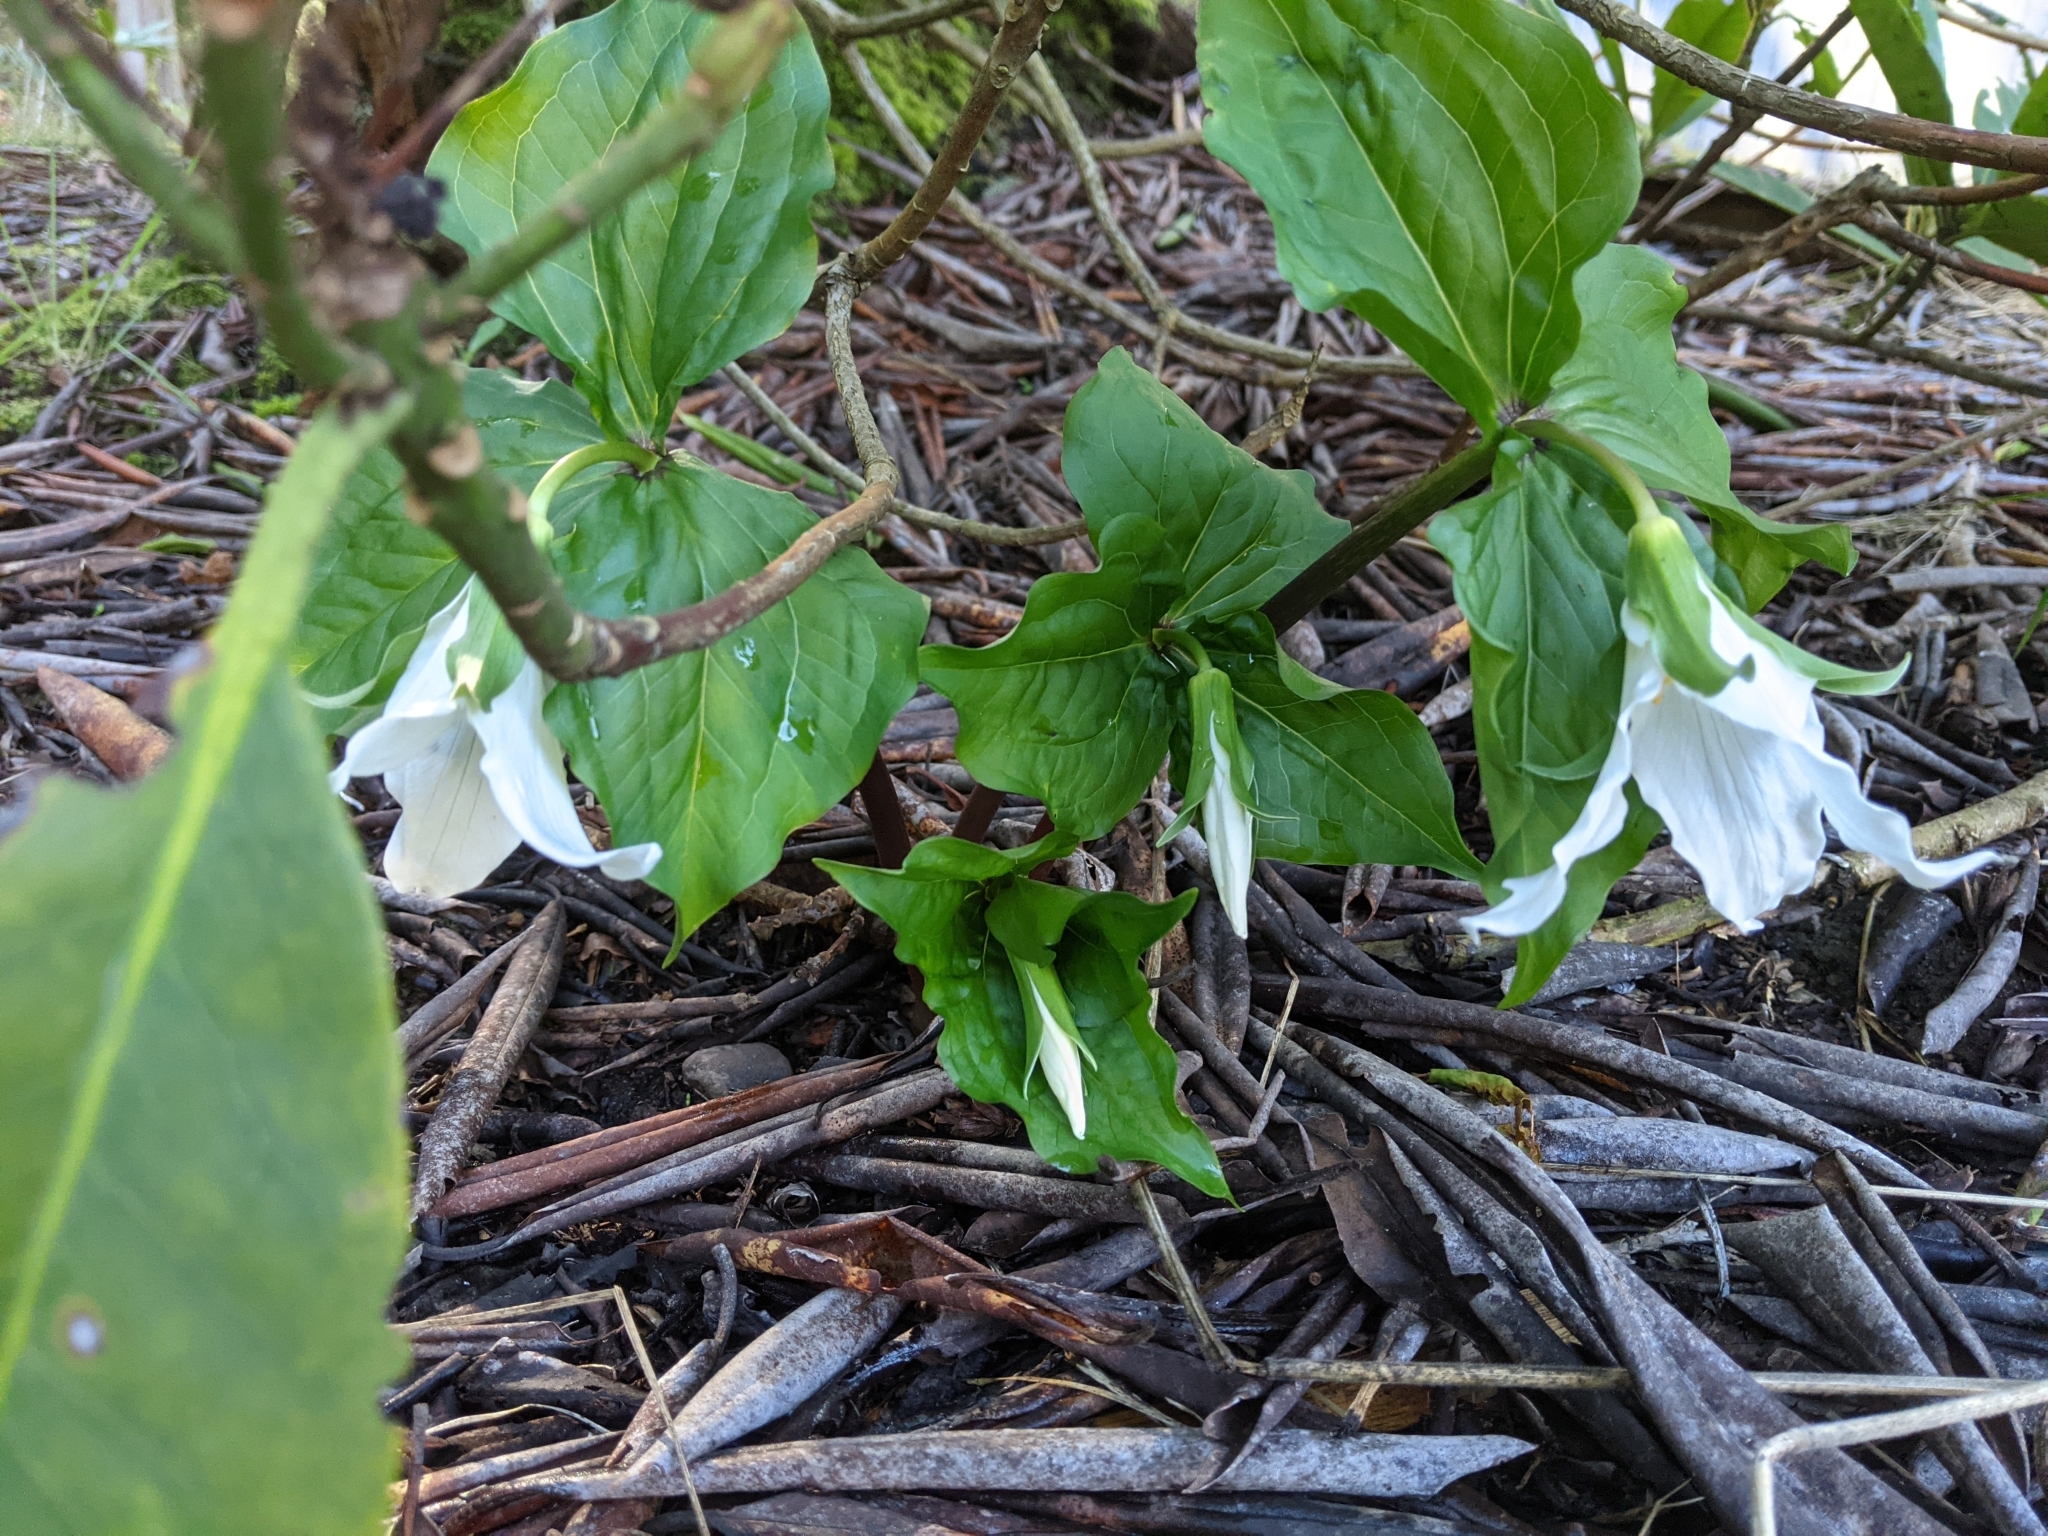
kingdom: Plantae
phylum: Tracheophyta
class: Liliopsida
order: Liliales
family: Melanthiaceae
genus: Trillium
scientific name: Trillium ovatum
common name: Pacific trillium
